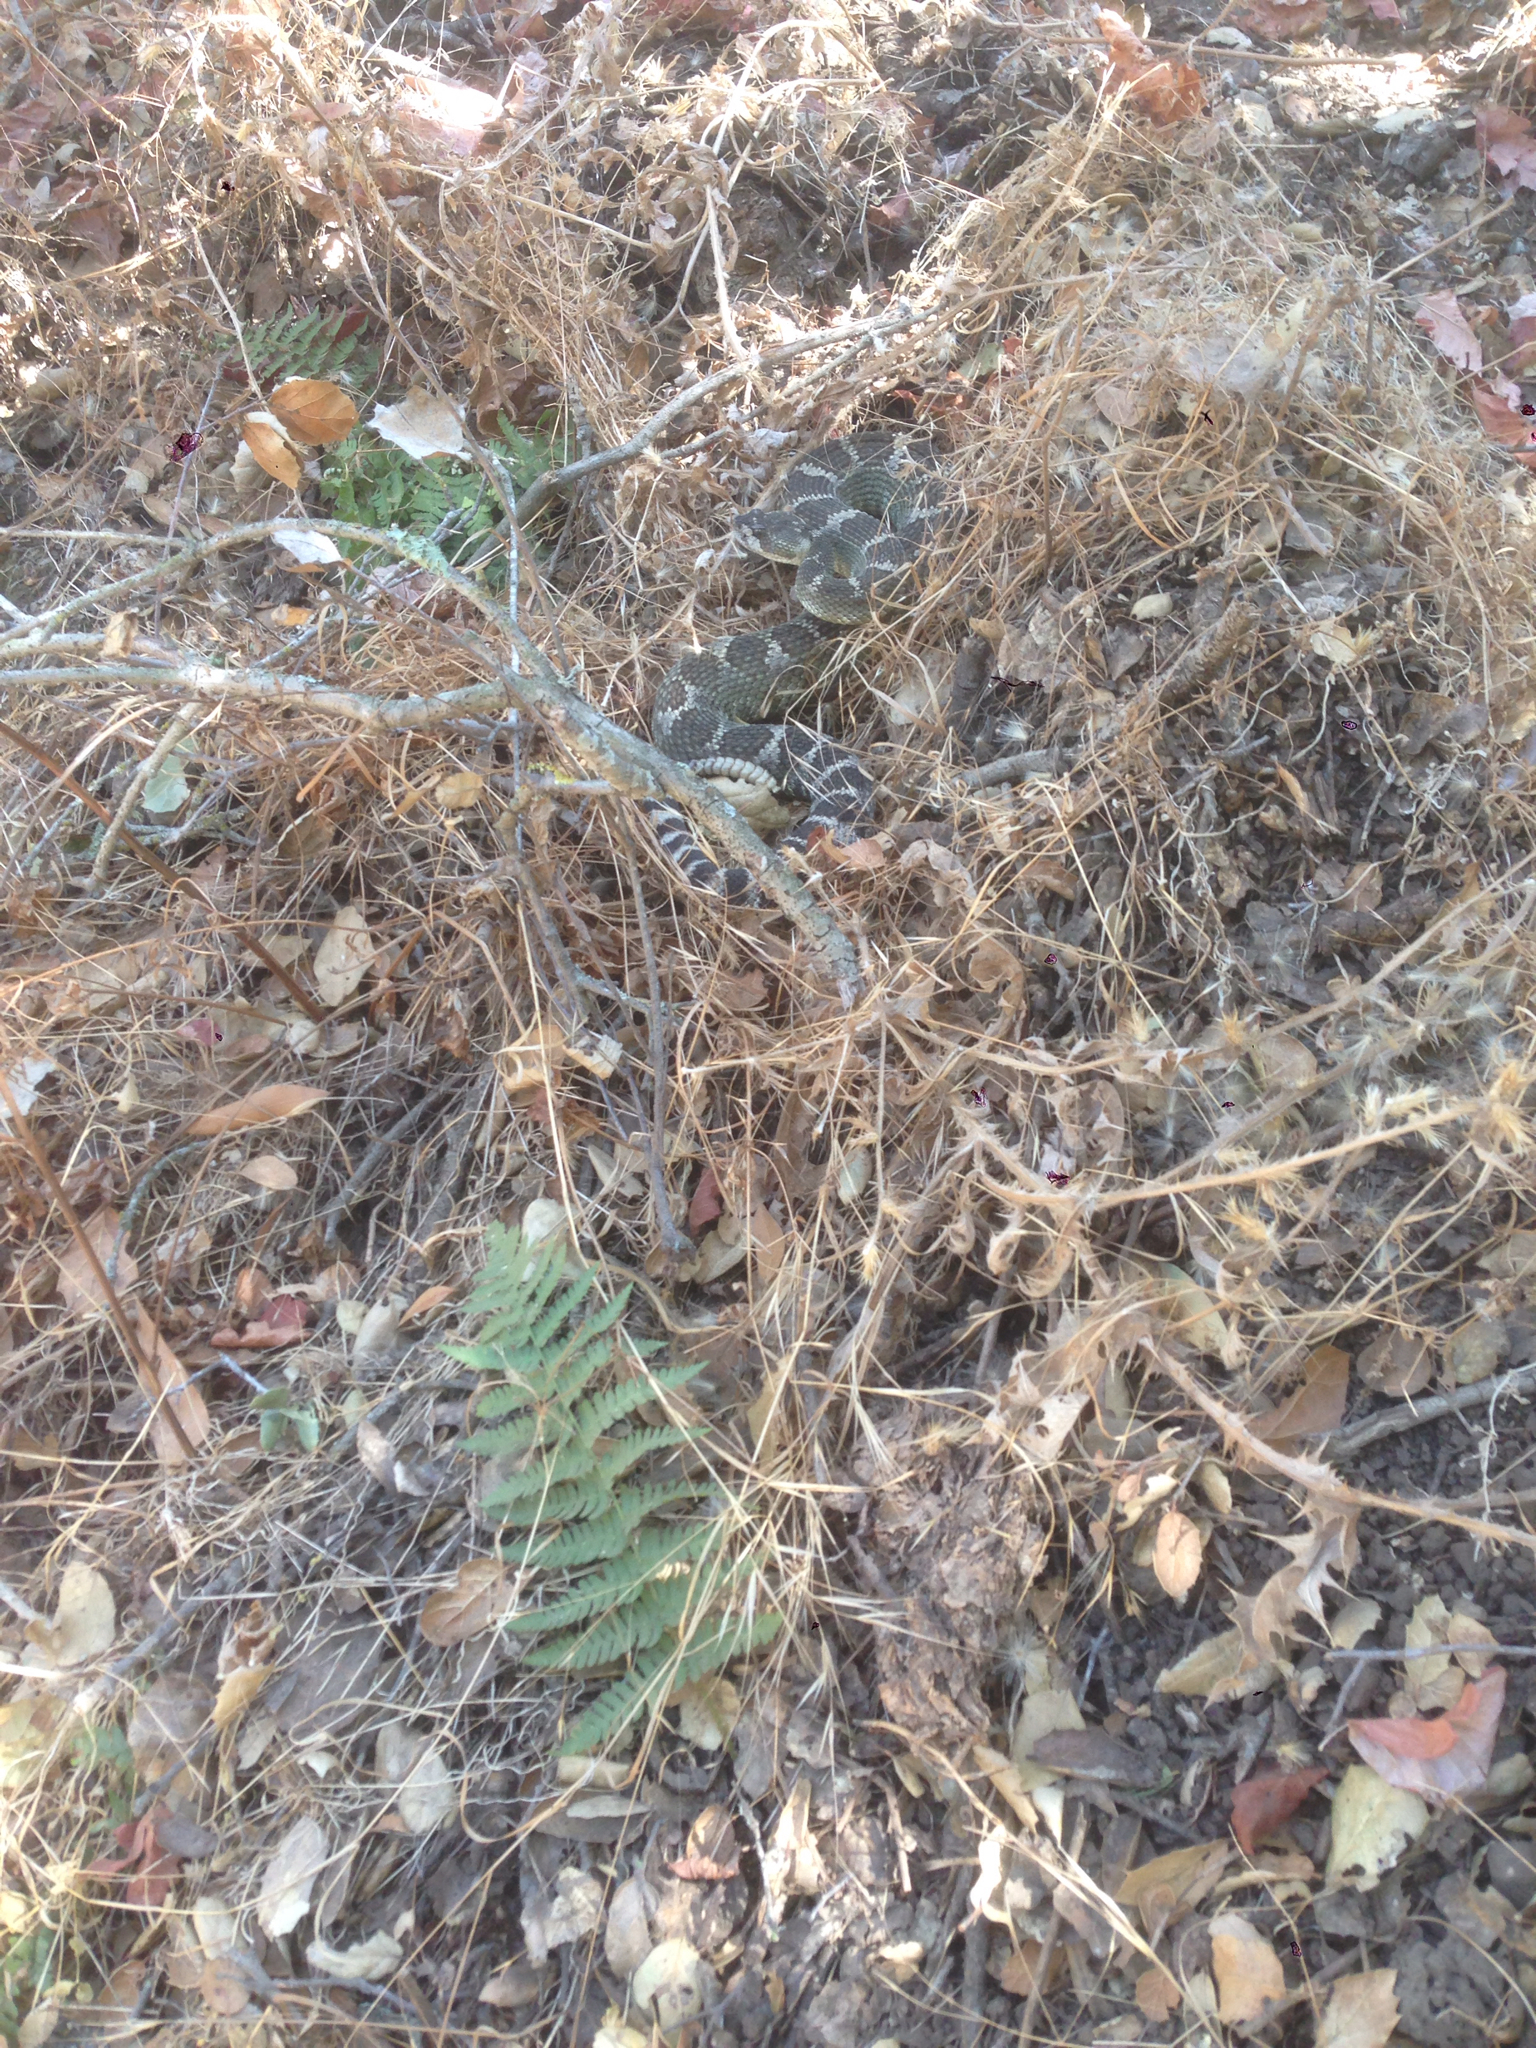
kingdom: Animalia
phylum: Chordata
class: Squamata
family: Viperidae
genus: Crotalus
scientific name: Crotalus oreganus
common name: Abyssus
